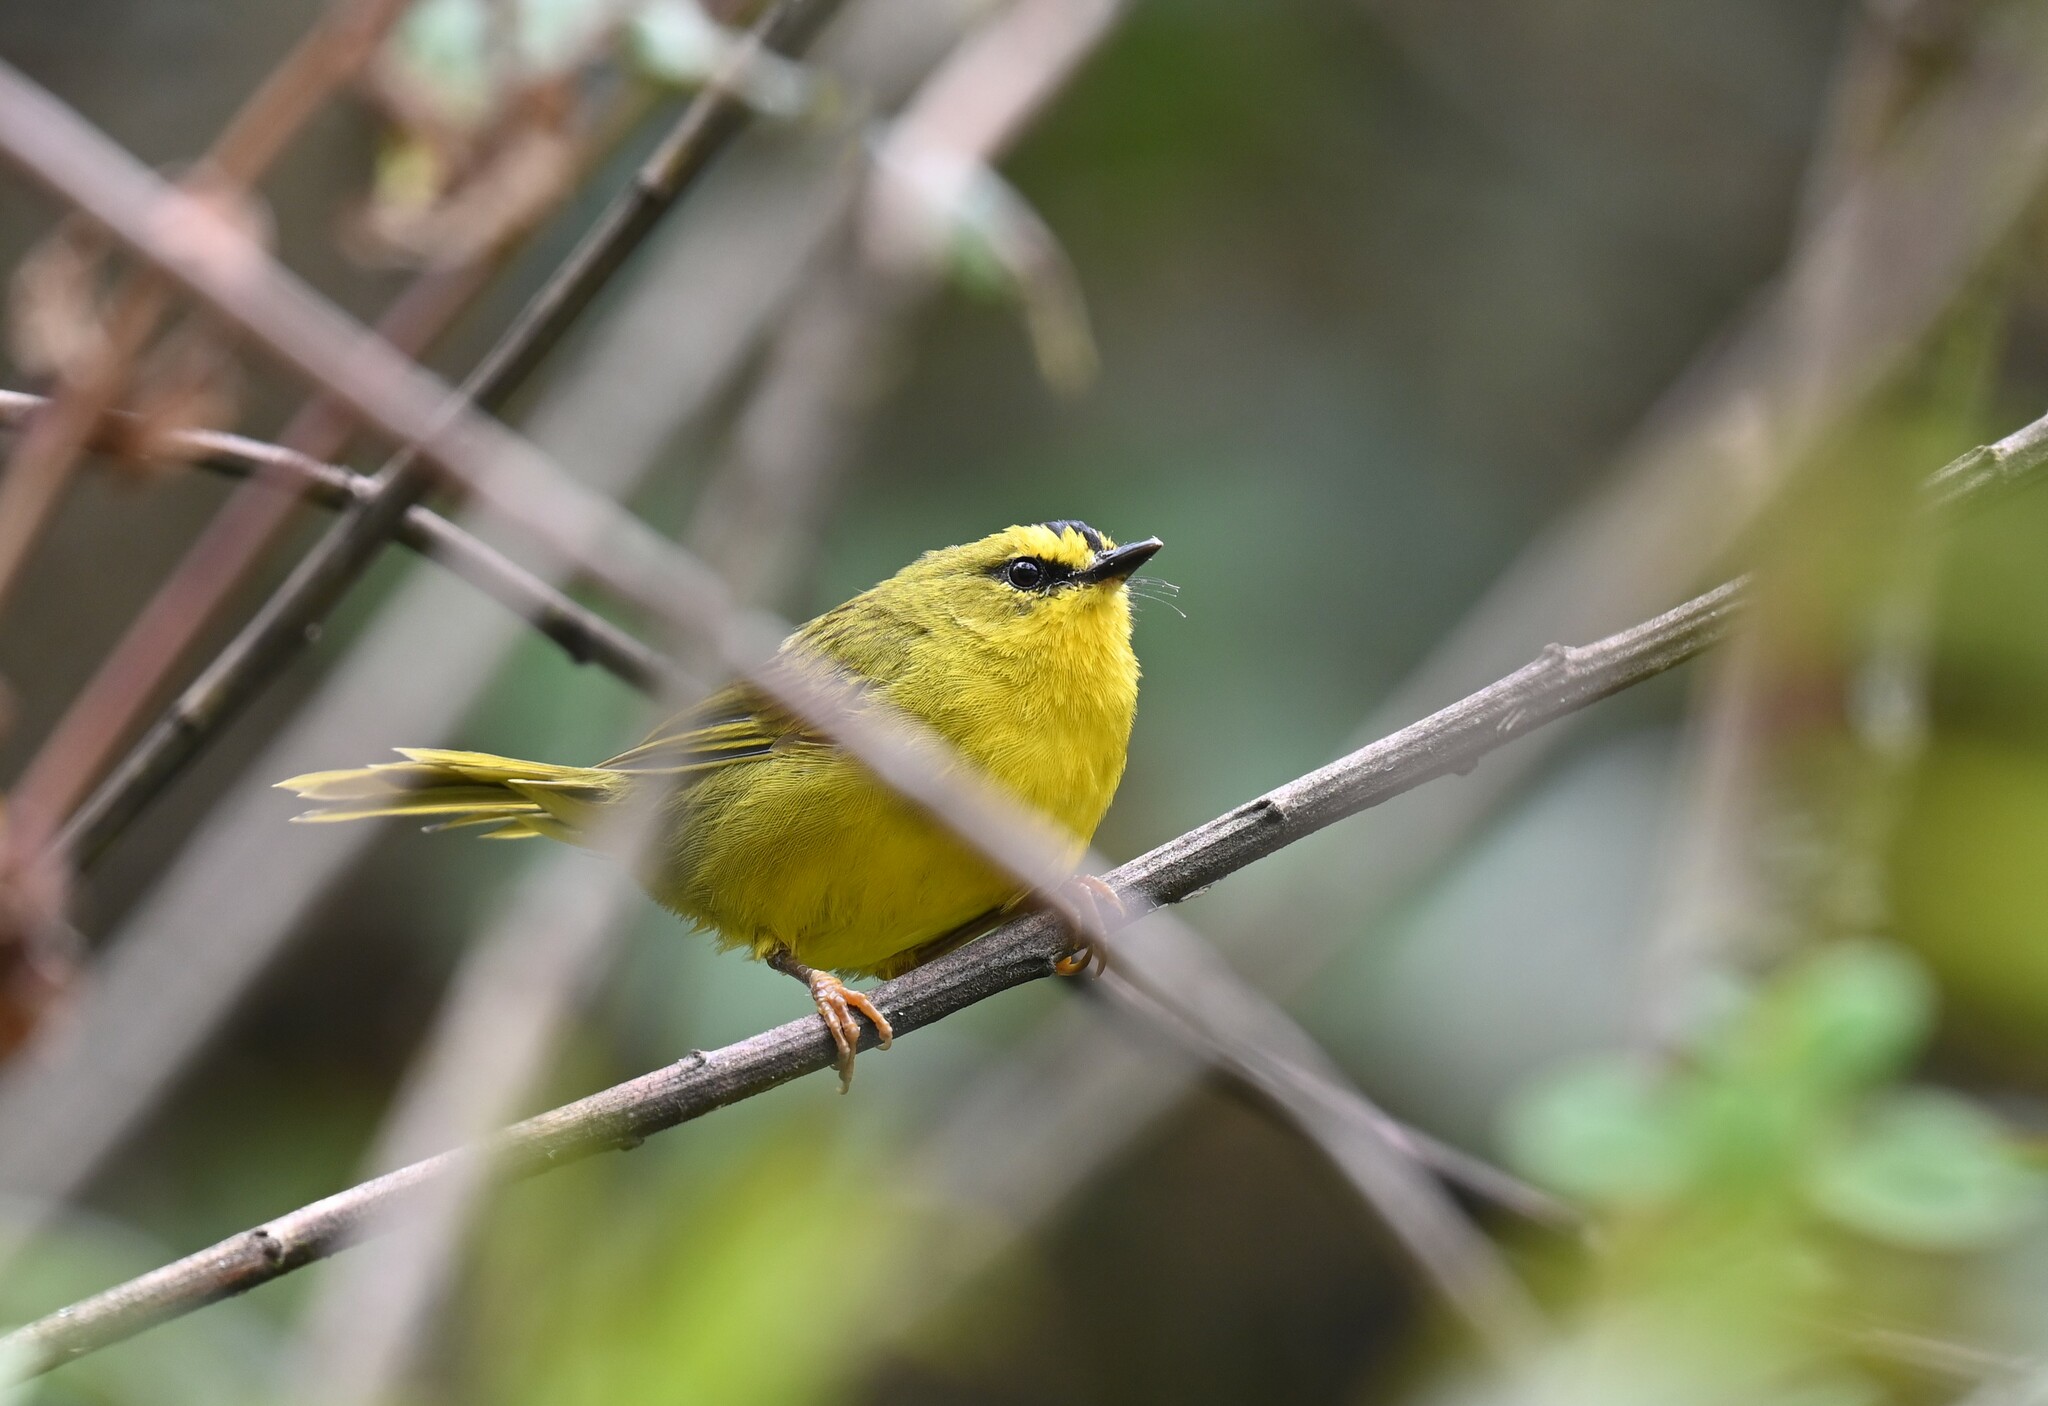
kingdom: Animalia
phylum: Chordata
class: Aves
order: Passeriformes
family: Parulidae
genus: Myiothlypis
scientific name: Myiothlypis nigrocristata
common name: Black-crested warbler
